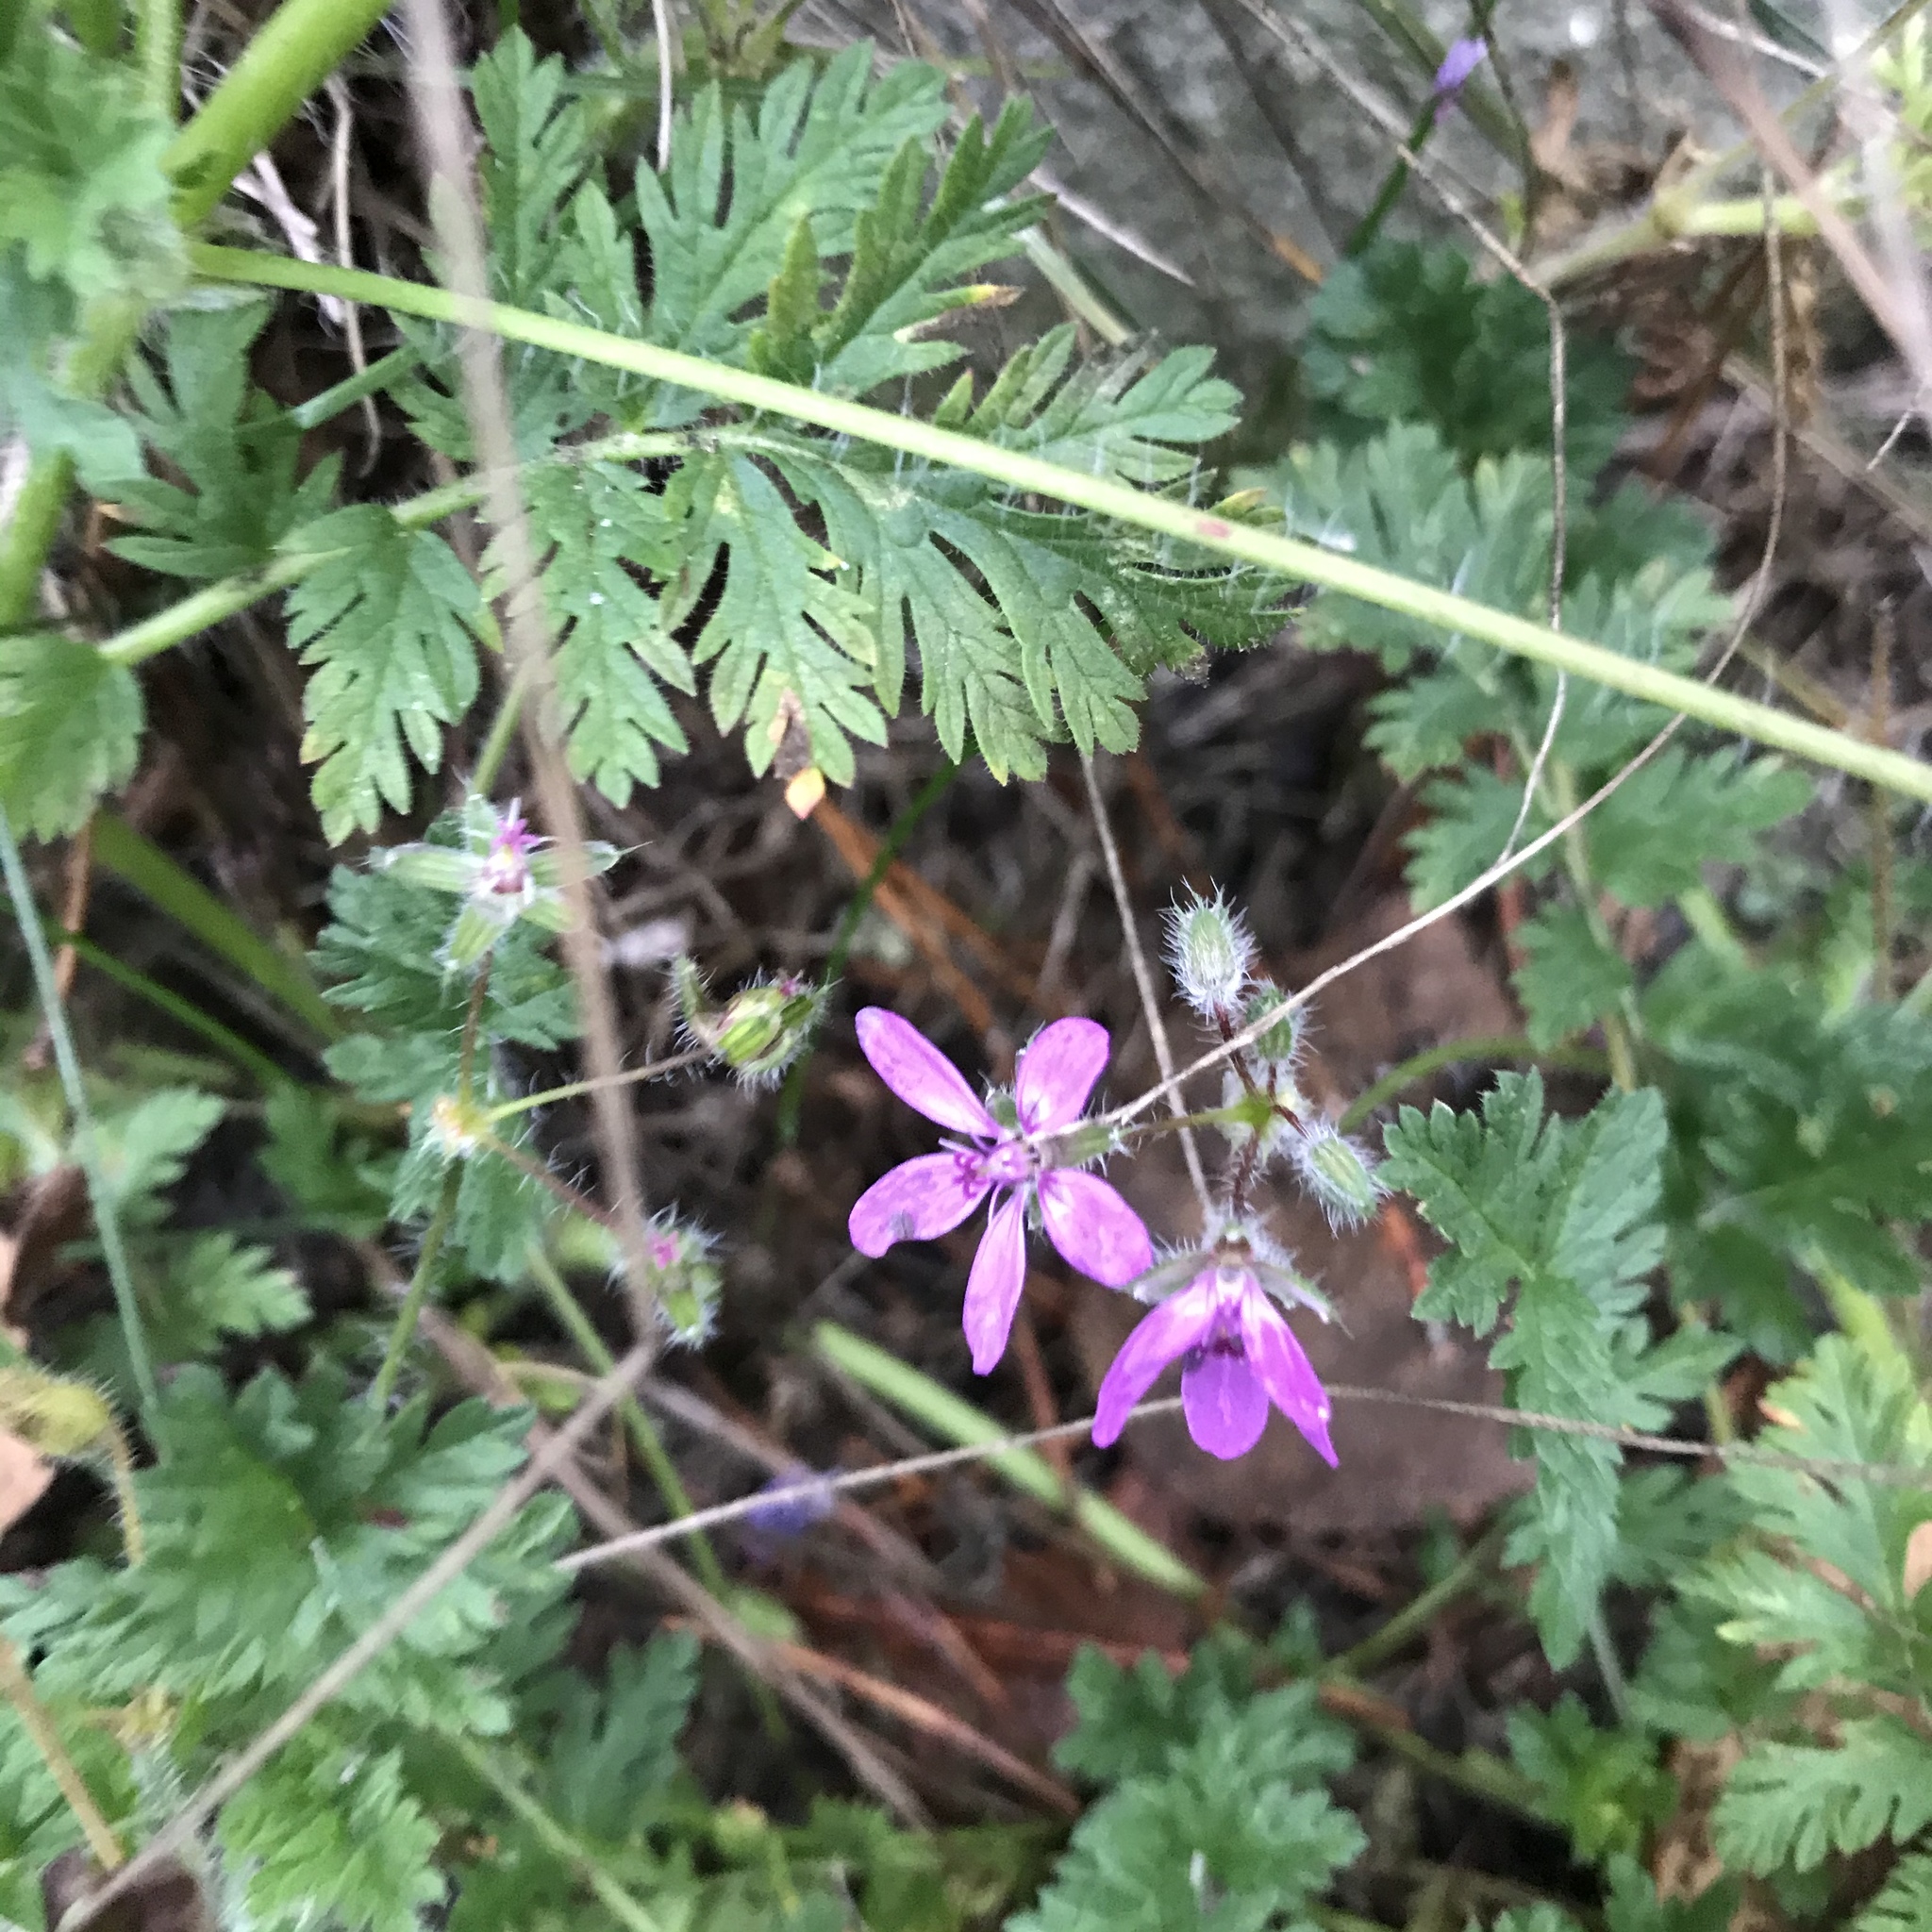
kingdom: Plantae
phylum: Tracheophyta
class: Magnoliopsida
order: Geraniales
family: Geraniaceae
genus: Erodium
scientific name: Erodium cicutarium
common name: Common stork's-bill
